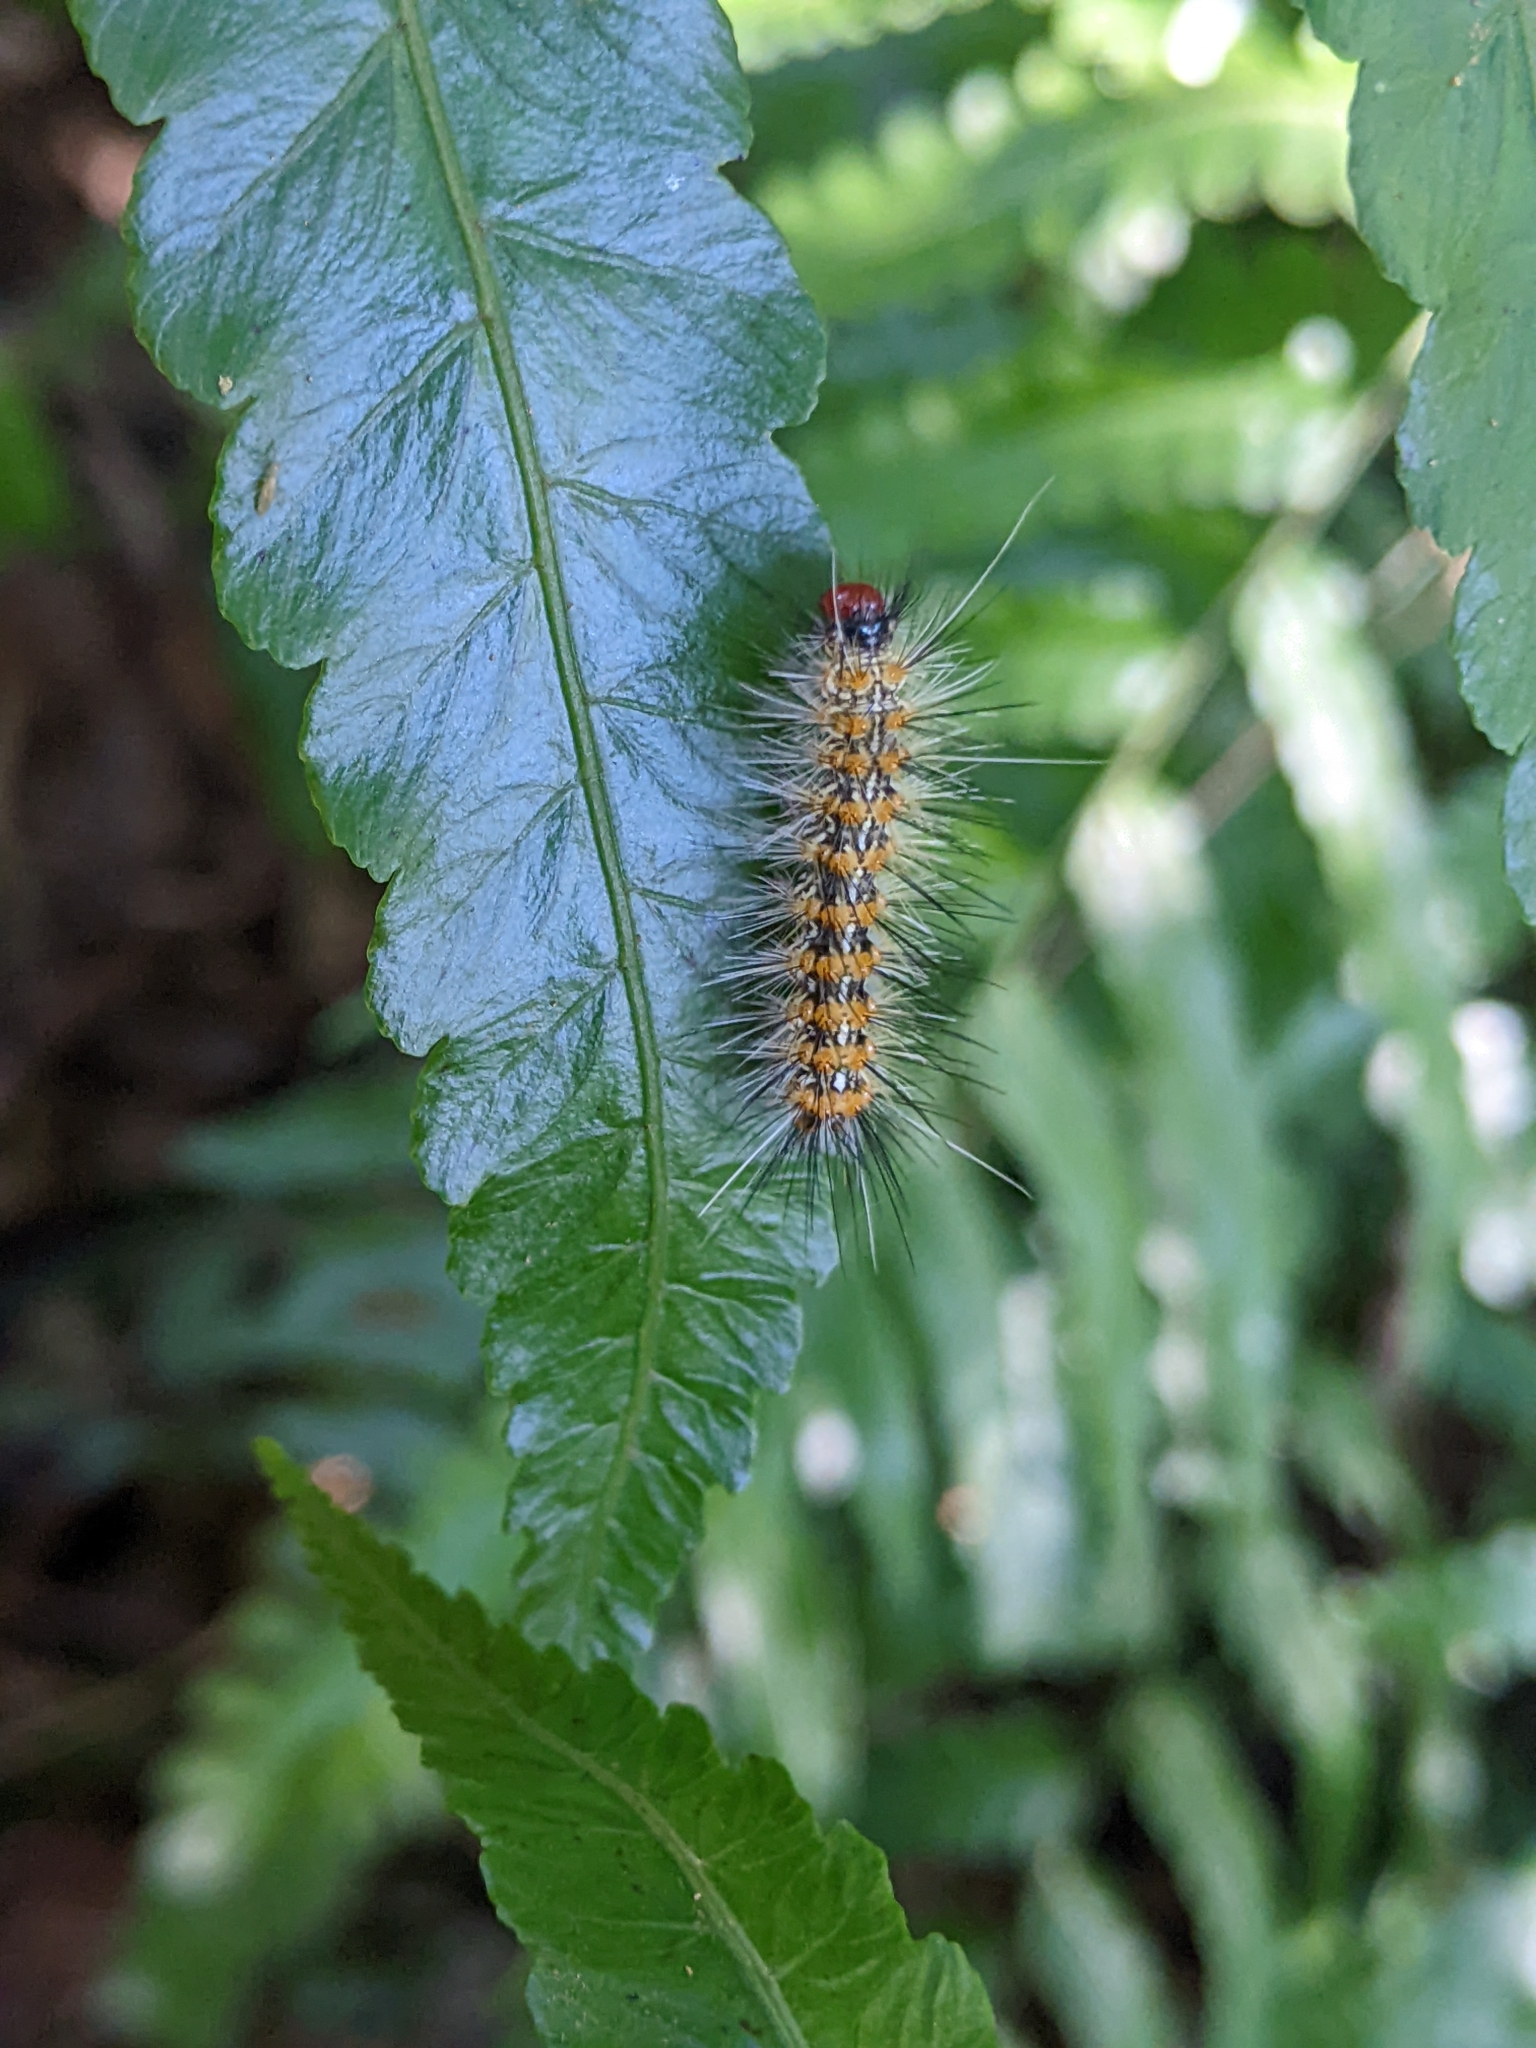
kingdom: Animalia
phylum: Arthropoda
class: Insecta
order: Lepidoptera
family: Erebidae
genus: Lemyra
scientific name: Lemyra imparilis
